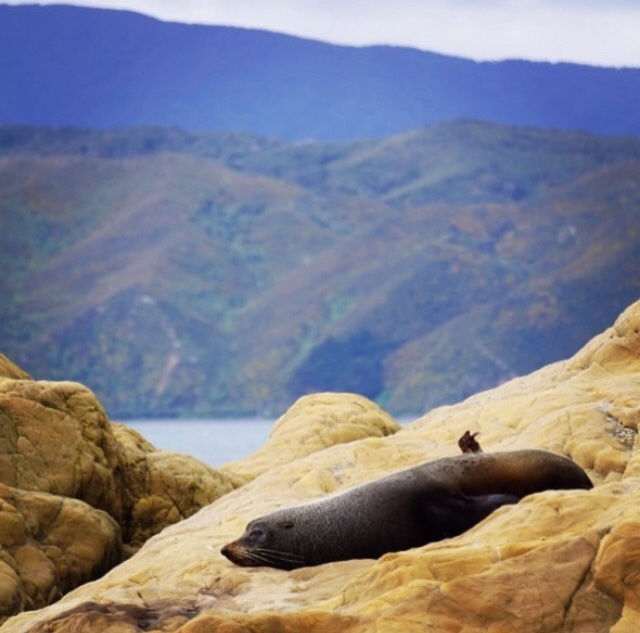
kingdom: Animalia
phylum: Chordata
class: Mammalia
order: Carnivora
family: Otariidae
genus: Arctocephalus
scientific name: Arctocephalus forsteri
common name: New zealand fur seal
